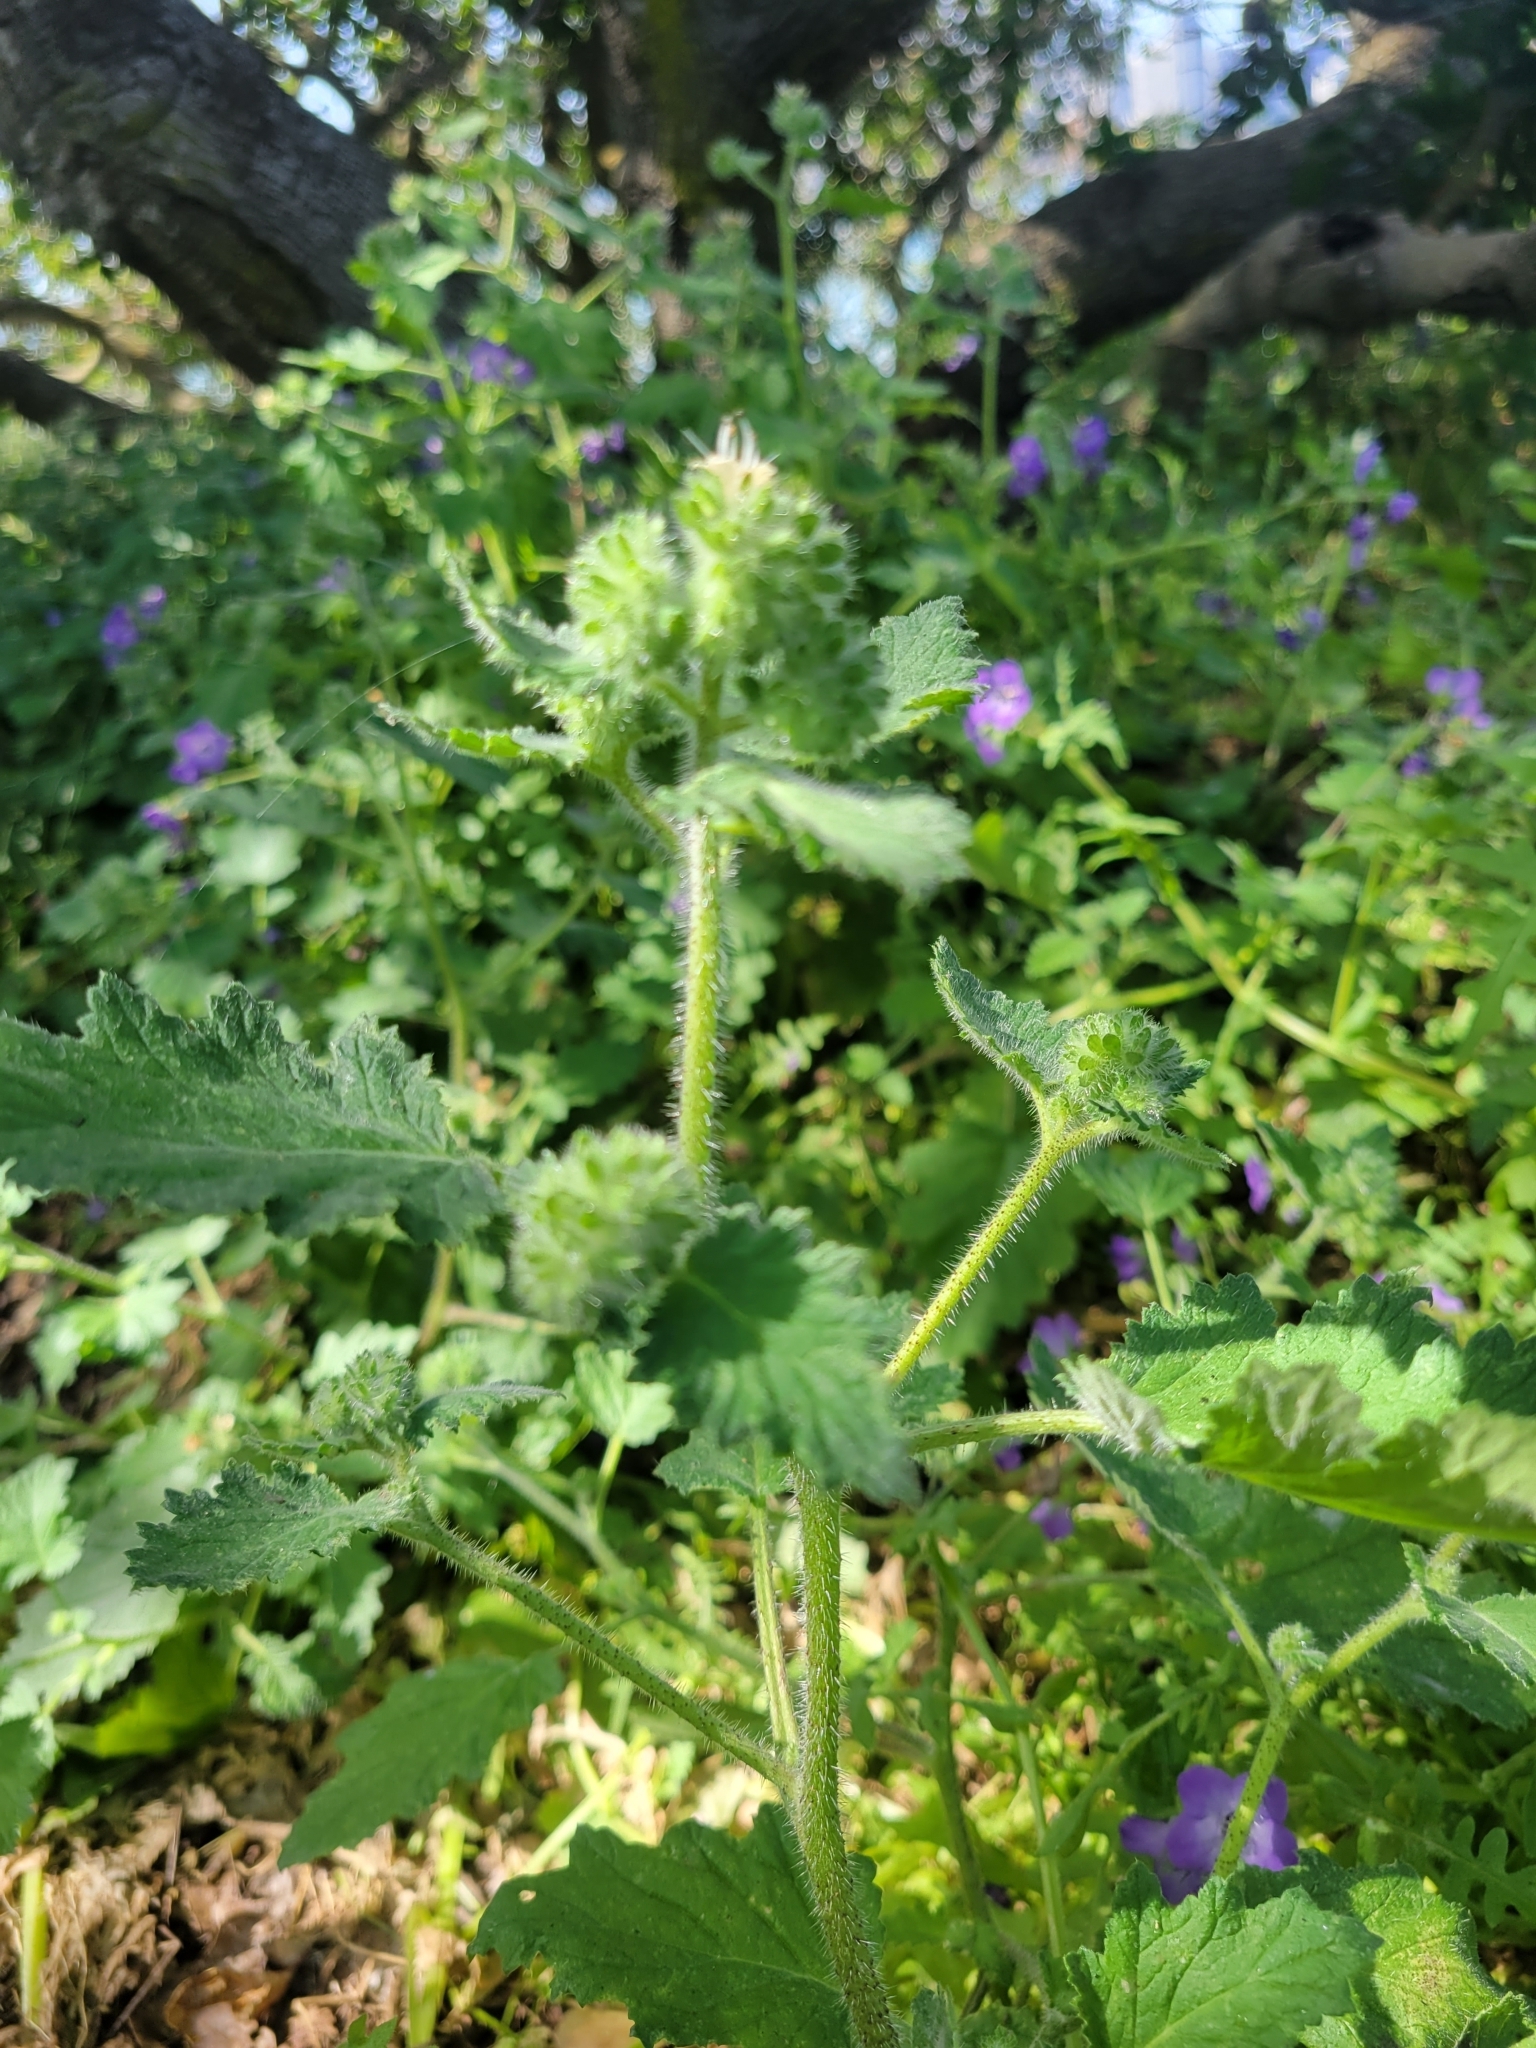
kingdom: Plantae
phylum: Tracheophyta
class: Magnoliopsida
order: Boraginales
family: Hydrophyllaceae
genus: Phacelia
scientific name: Phacelia malvifolia
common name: Mallow-leaf phacelia
